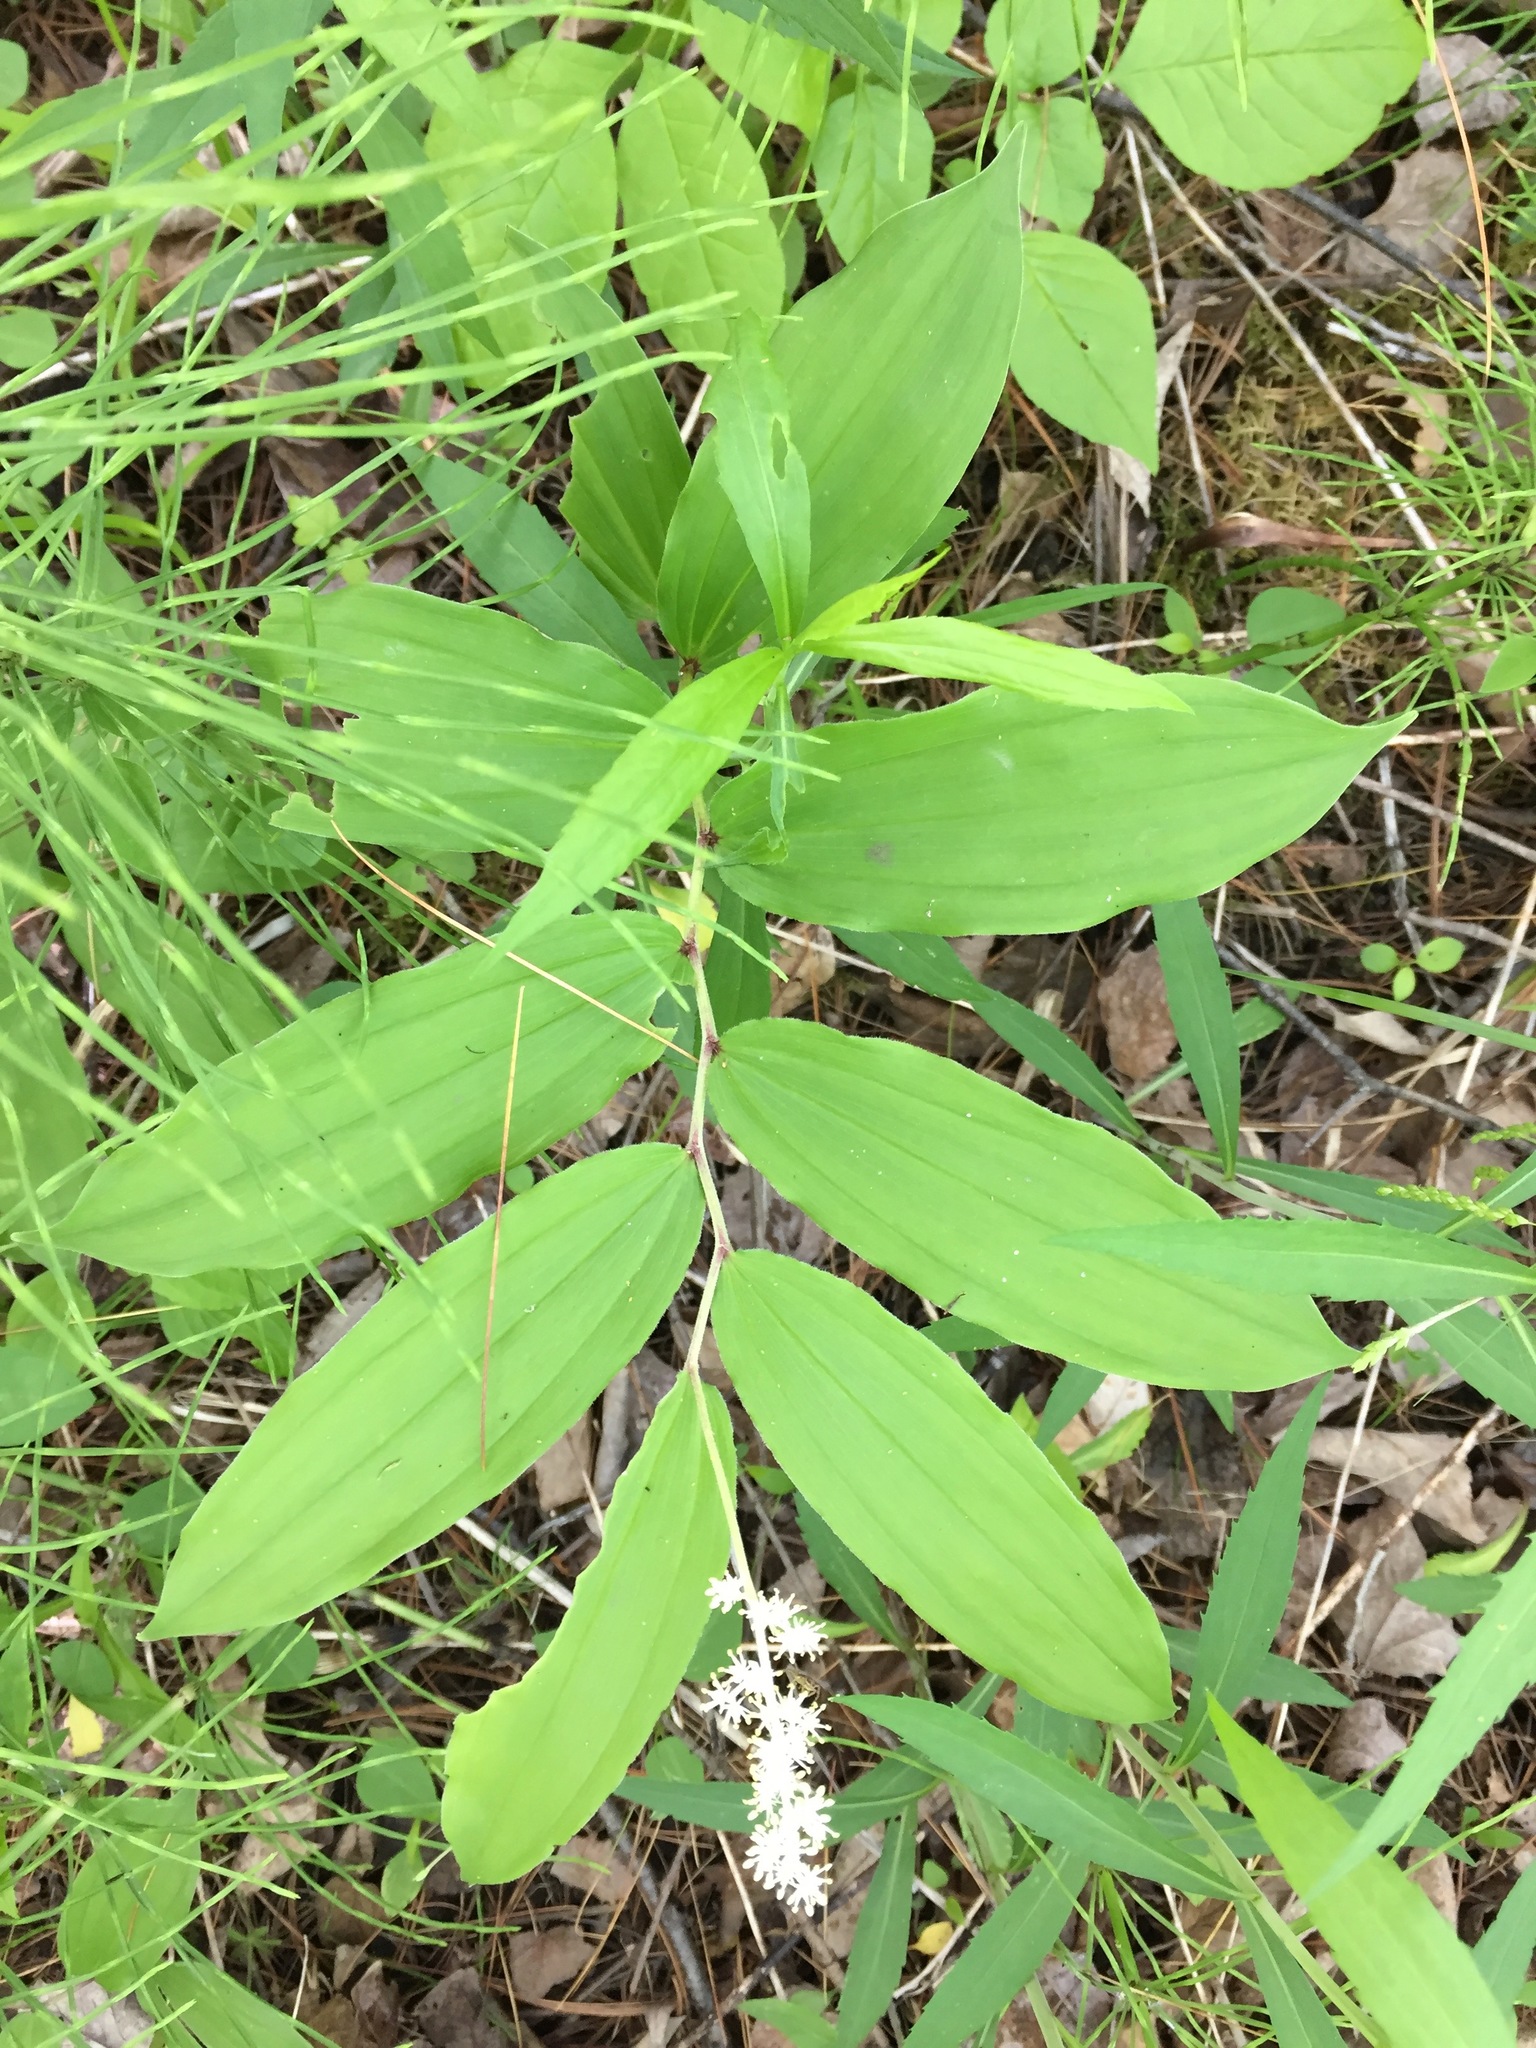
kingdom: Plantae
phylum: Tracheophyta
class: Liliopsida
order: Asparagales
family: Asparagaceae
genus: Maianthemum
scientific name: Maianthemum racemosum
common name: False spikenard
